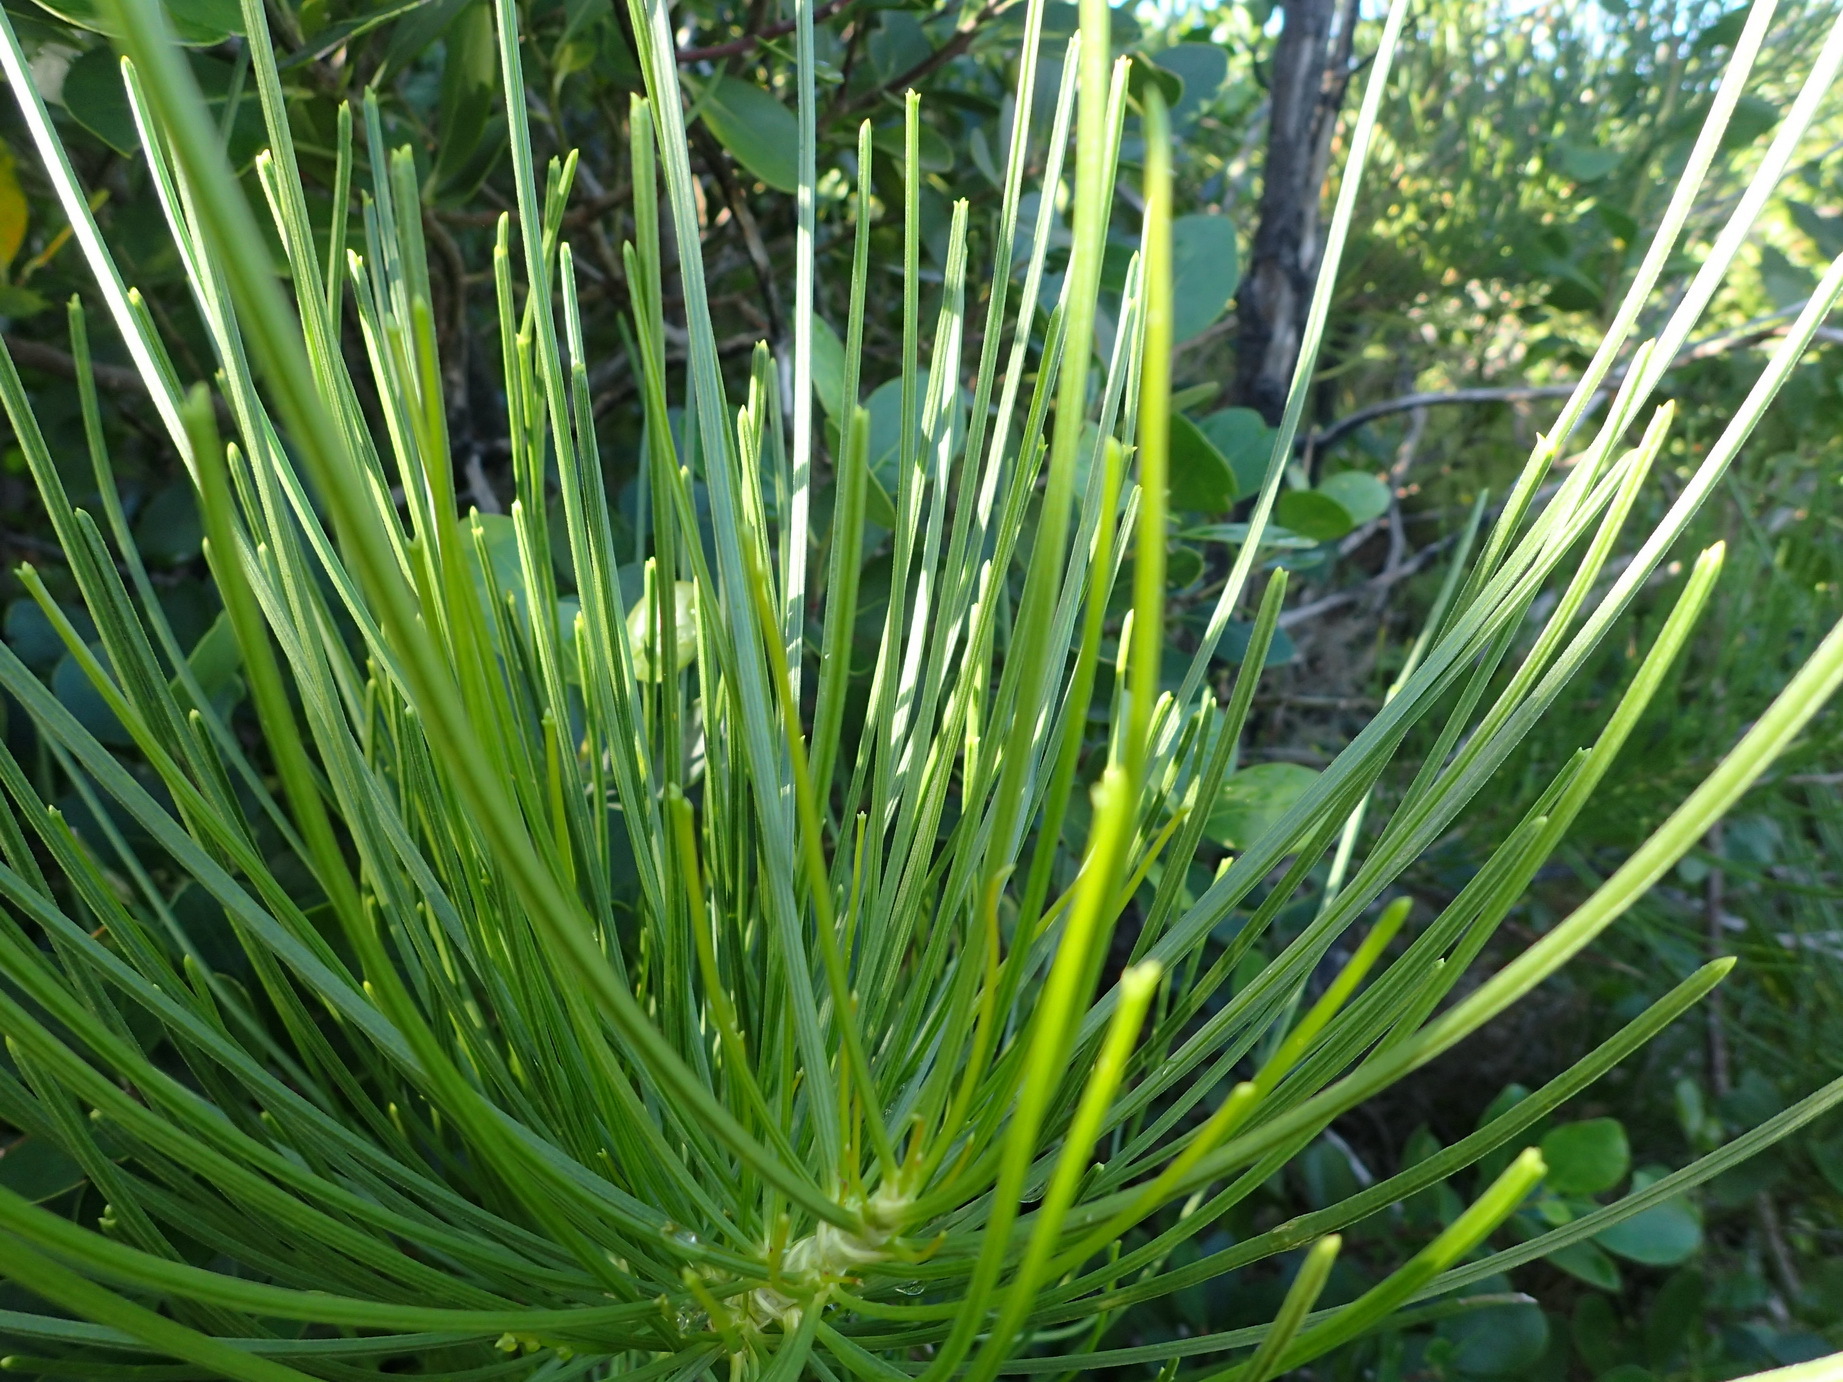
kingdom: Plantae
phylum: Tracheophyta
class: Magnoliopsida
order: Apiales
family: Apiaceae
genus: Anginon
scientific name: Anginon difforme
